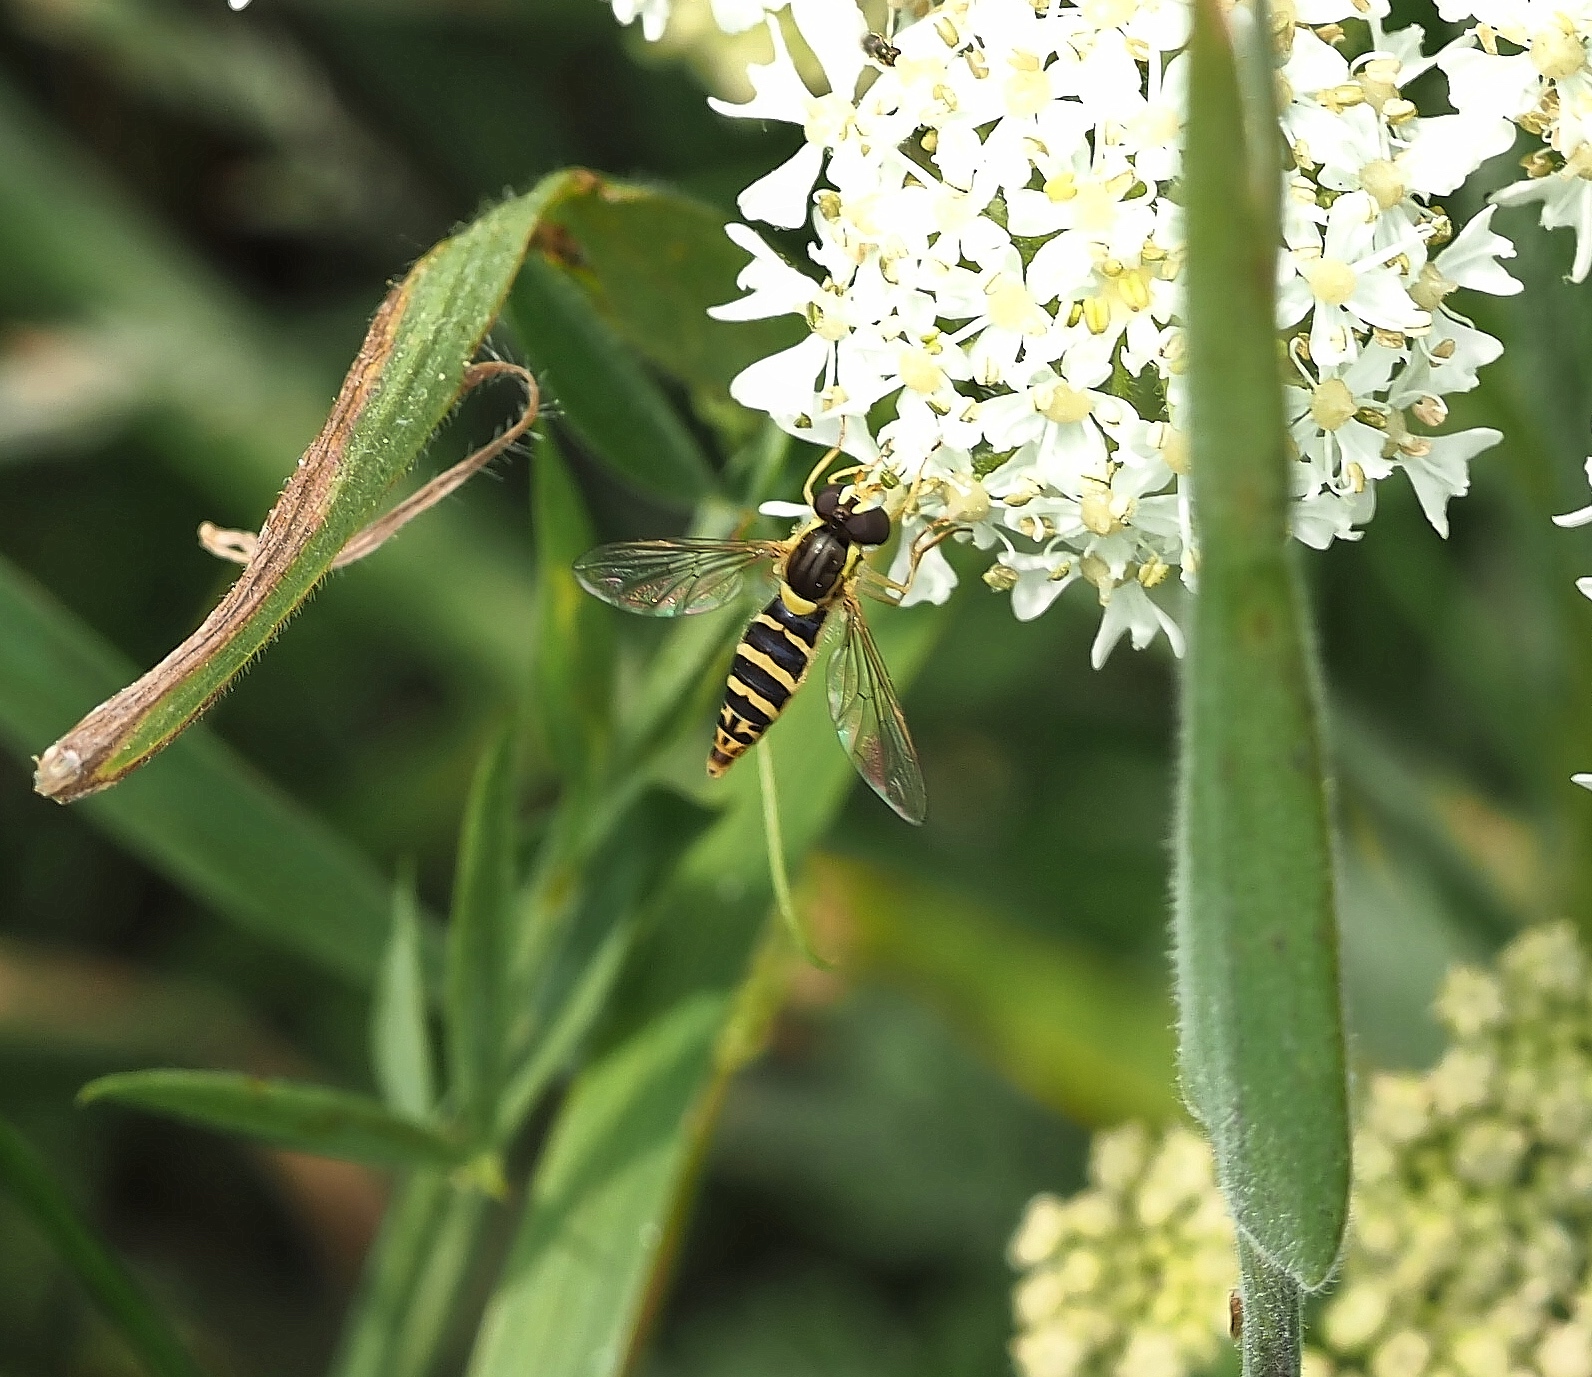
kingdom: Animalia
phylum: Arthropoda
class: Insecta
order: Diptera
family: Syrphidae
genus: Sphaerophoria
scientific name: Sphaerophoria
